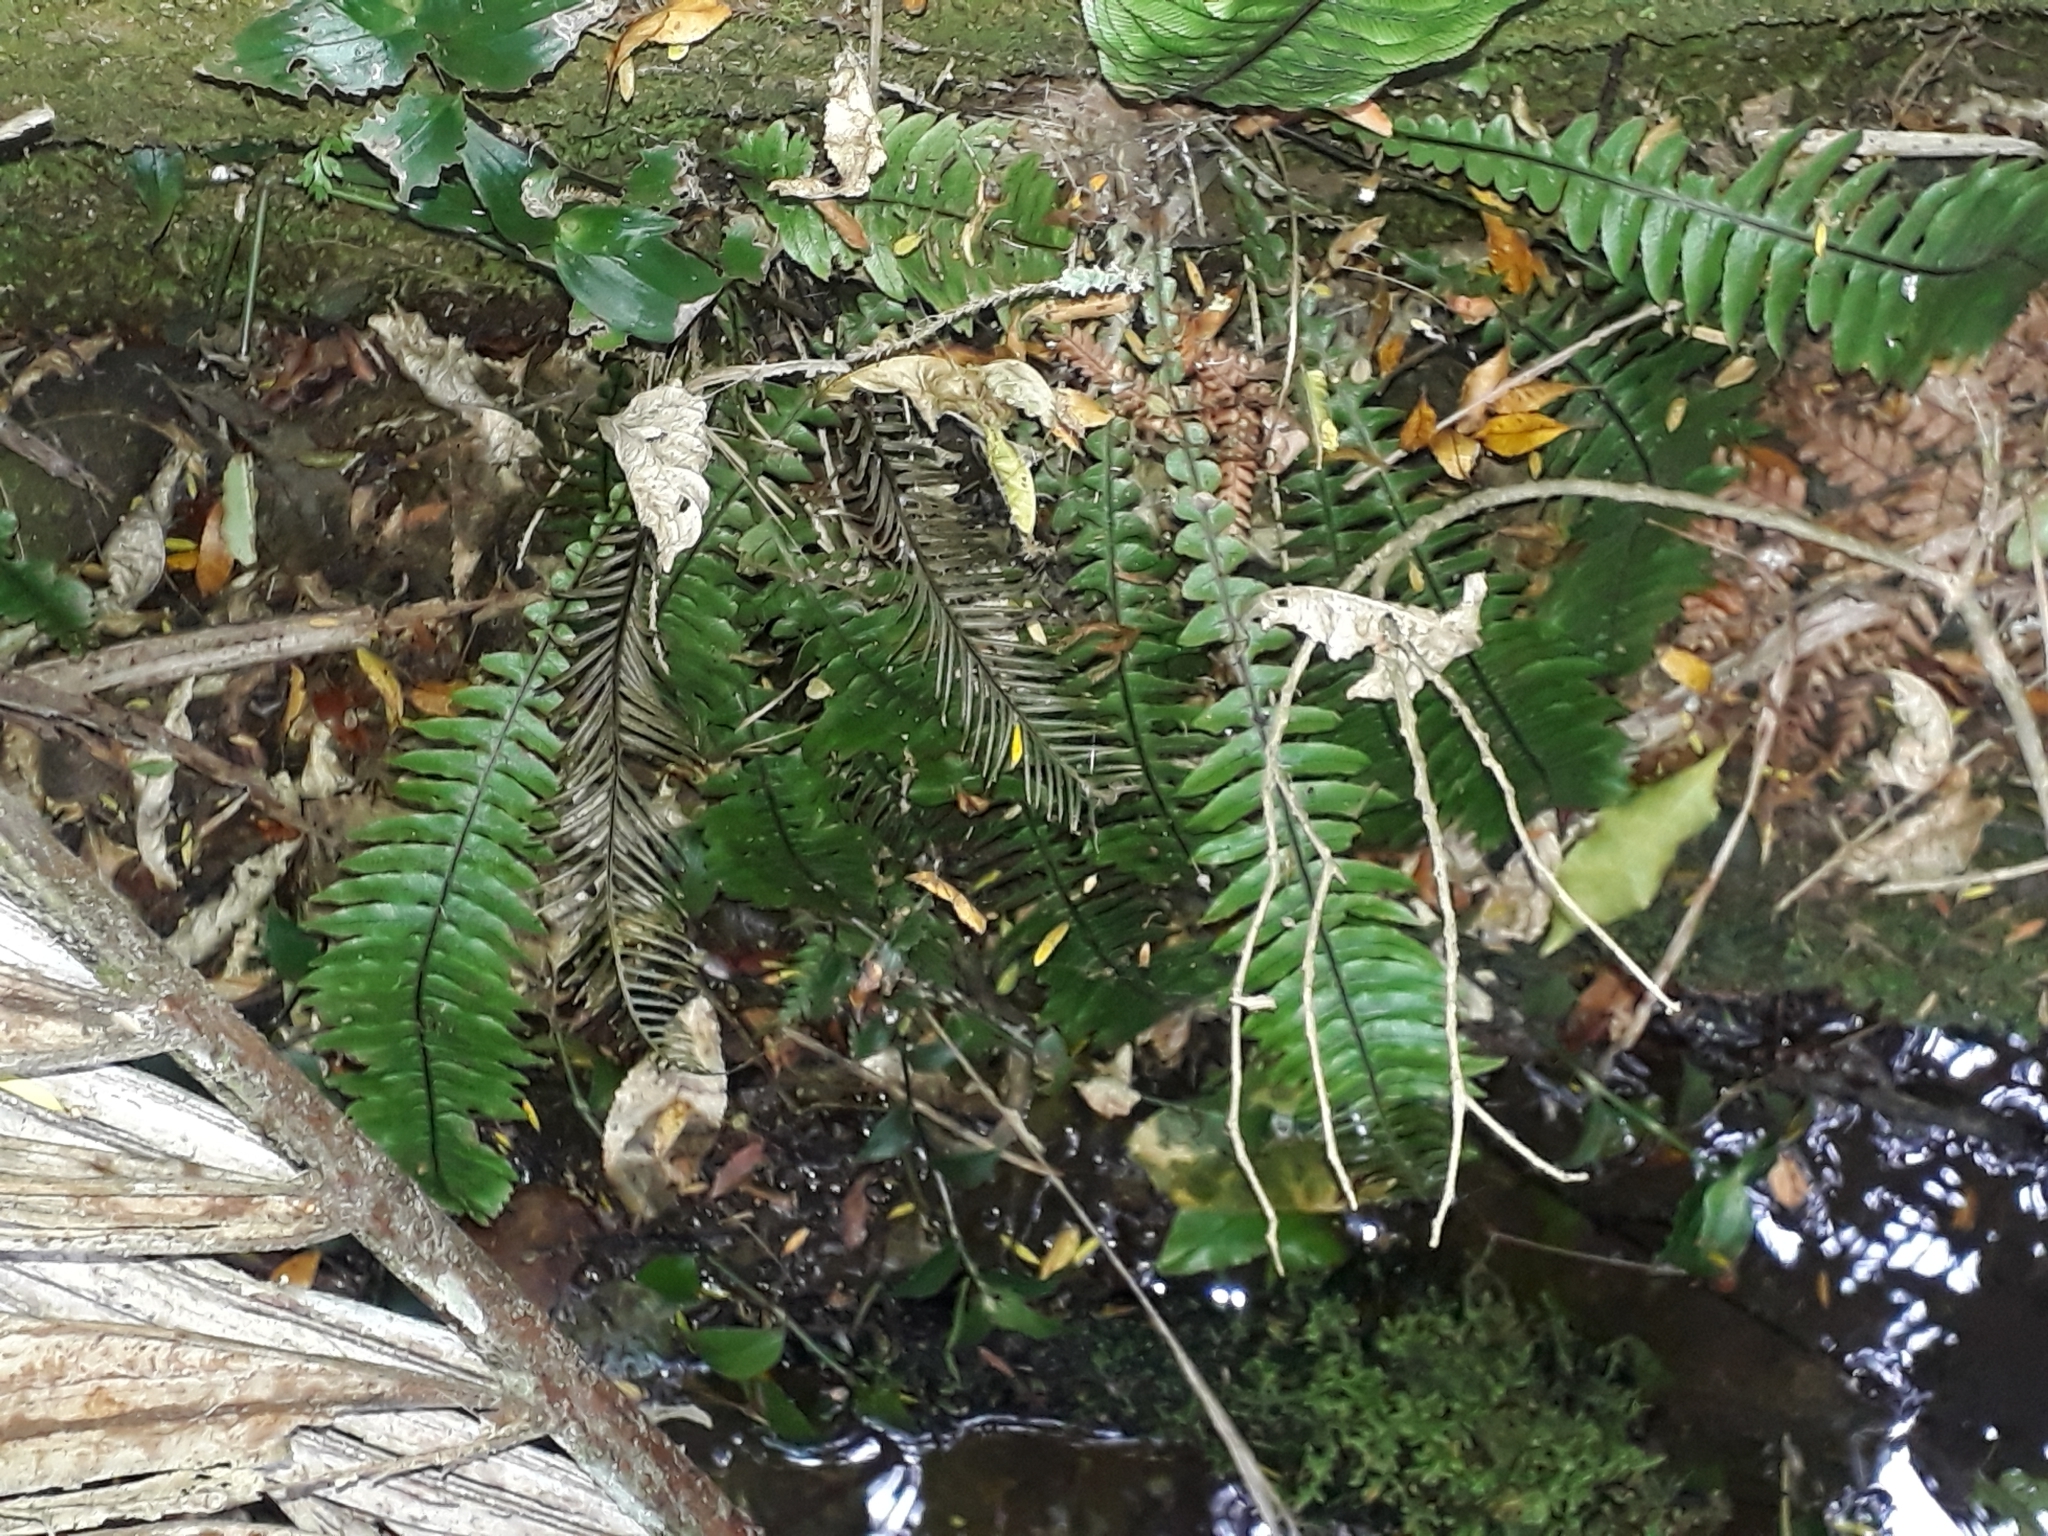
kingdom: Plantae
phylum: Tracheophyta
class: Polypodiopsida
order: Polypodiales
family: Blechnaceae
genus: Austroblechnum
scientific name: Austroblechnum lanceolatum
